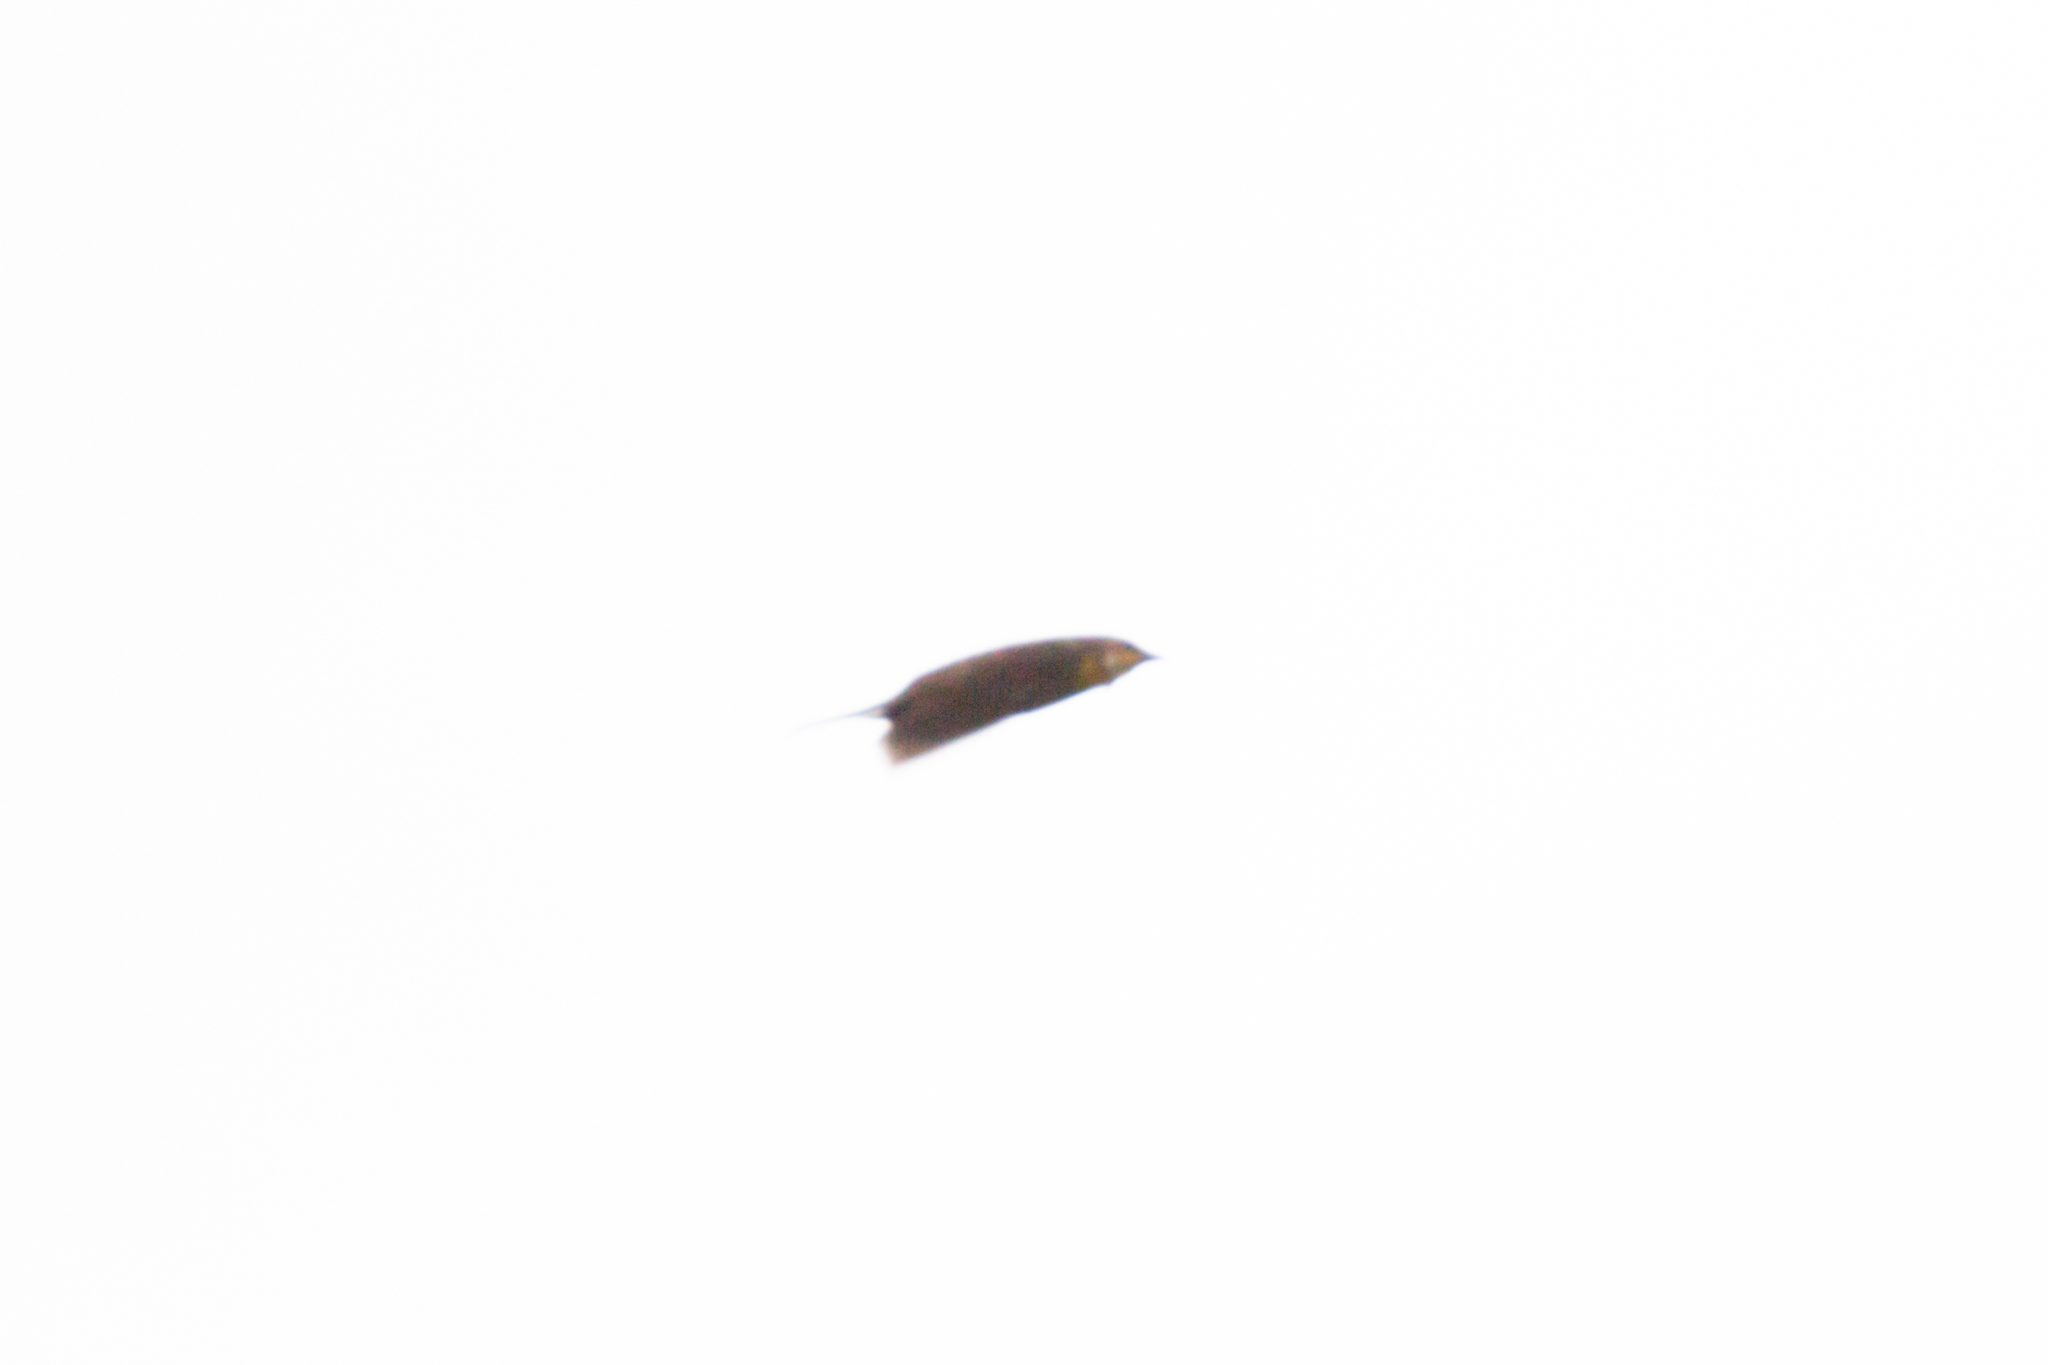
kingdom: Animalia
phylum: Chordata
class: Aves
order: Passeriformes
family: Icteridae
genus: Xanthocephalus
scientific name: Xanthocephalus xanthocephalus
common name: Yellow-headed blackbird
